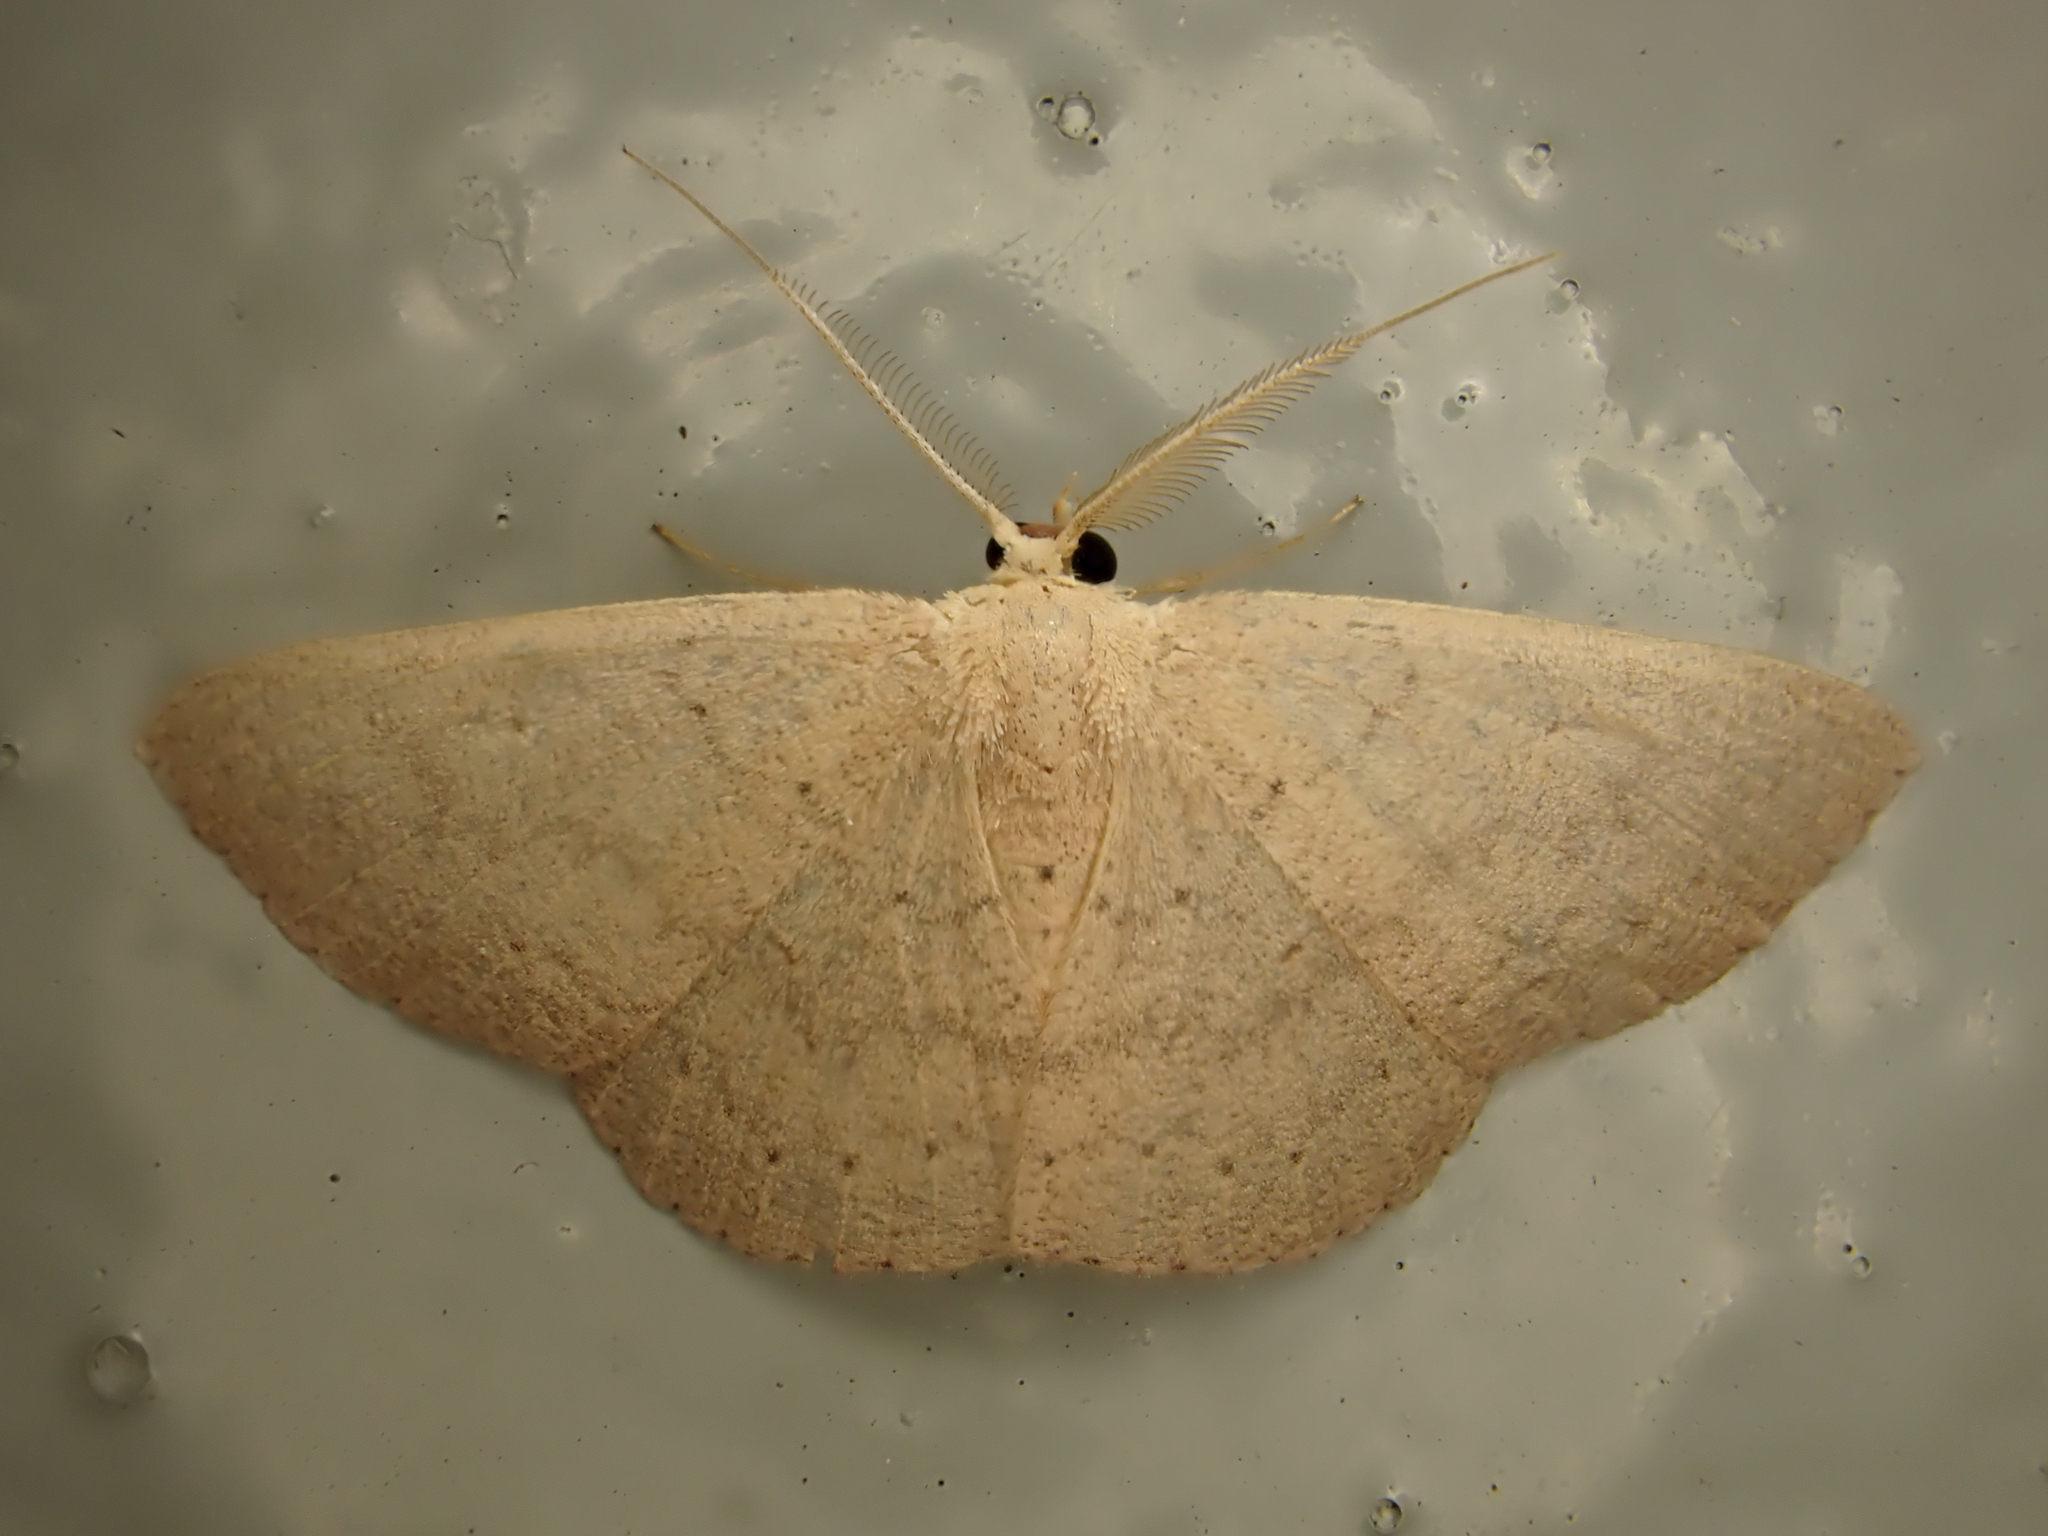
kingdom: Animalia
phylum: Arthropoda
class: Insecta
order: Lepidoptera
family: Geometridae
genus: Cyclophora
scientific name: Cyclophora obstataria
